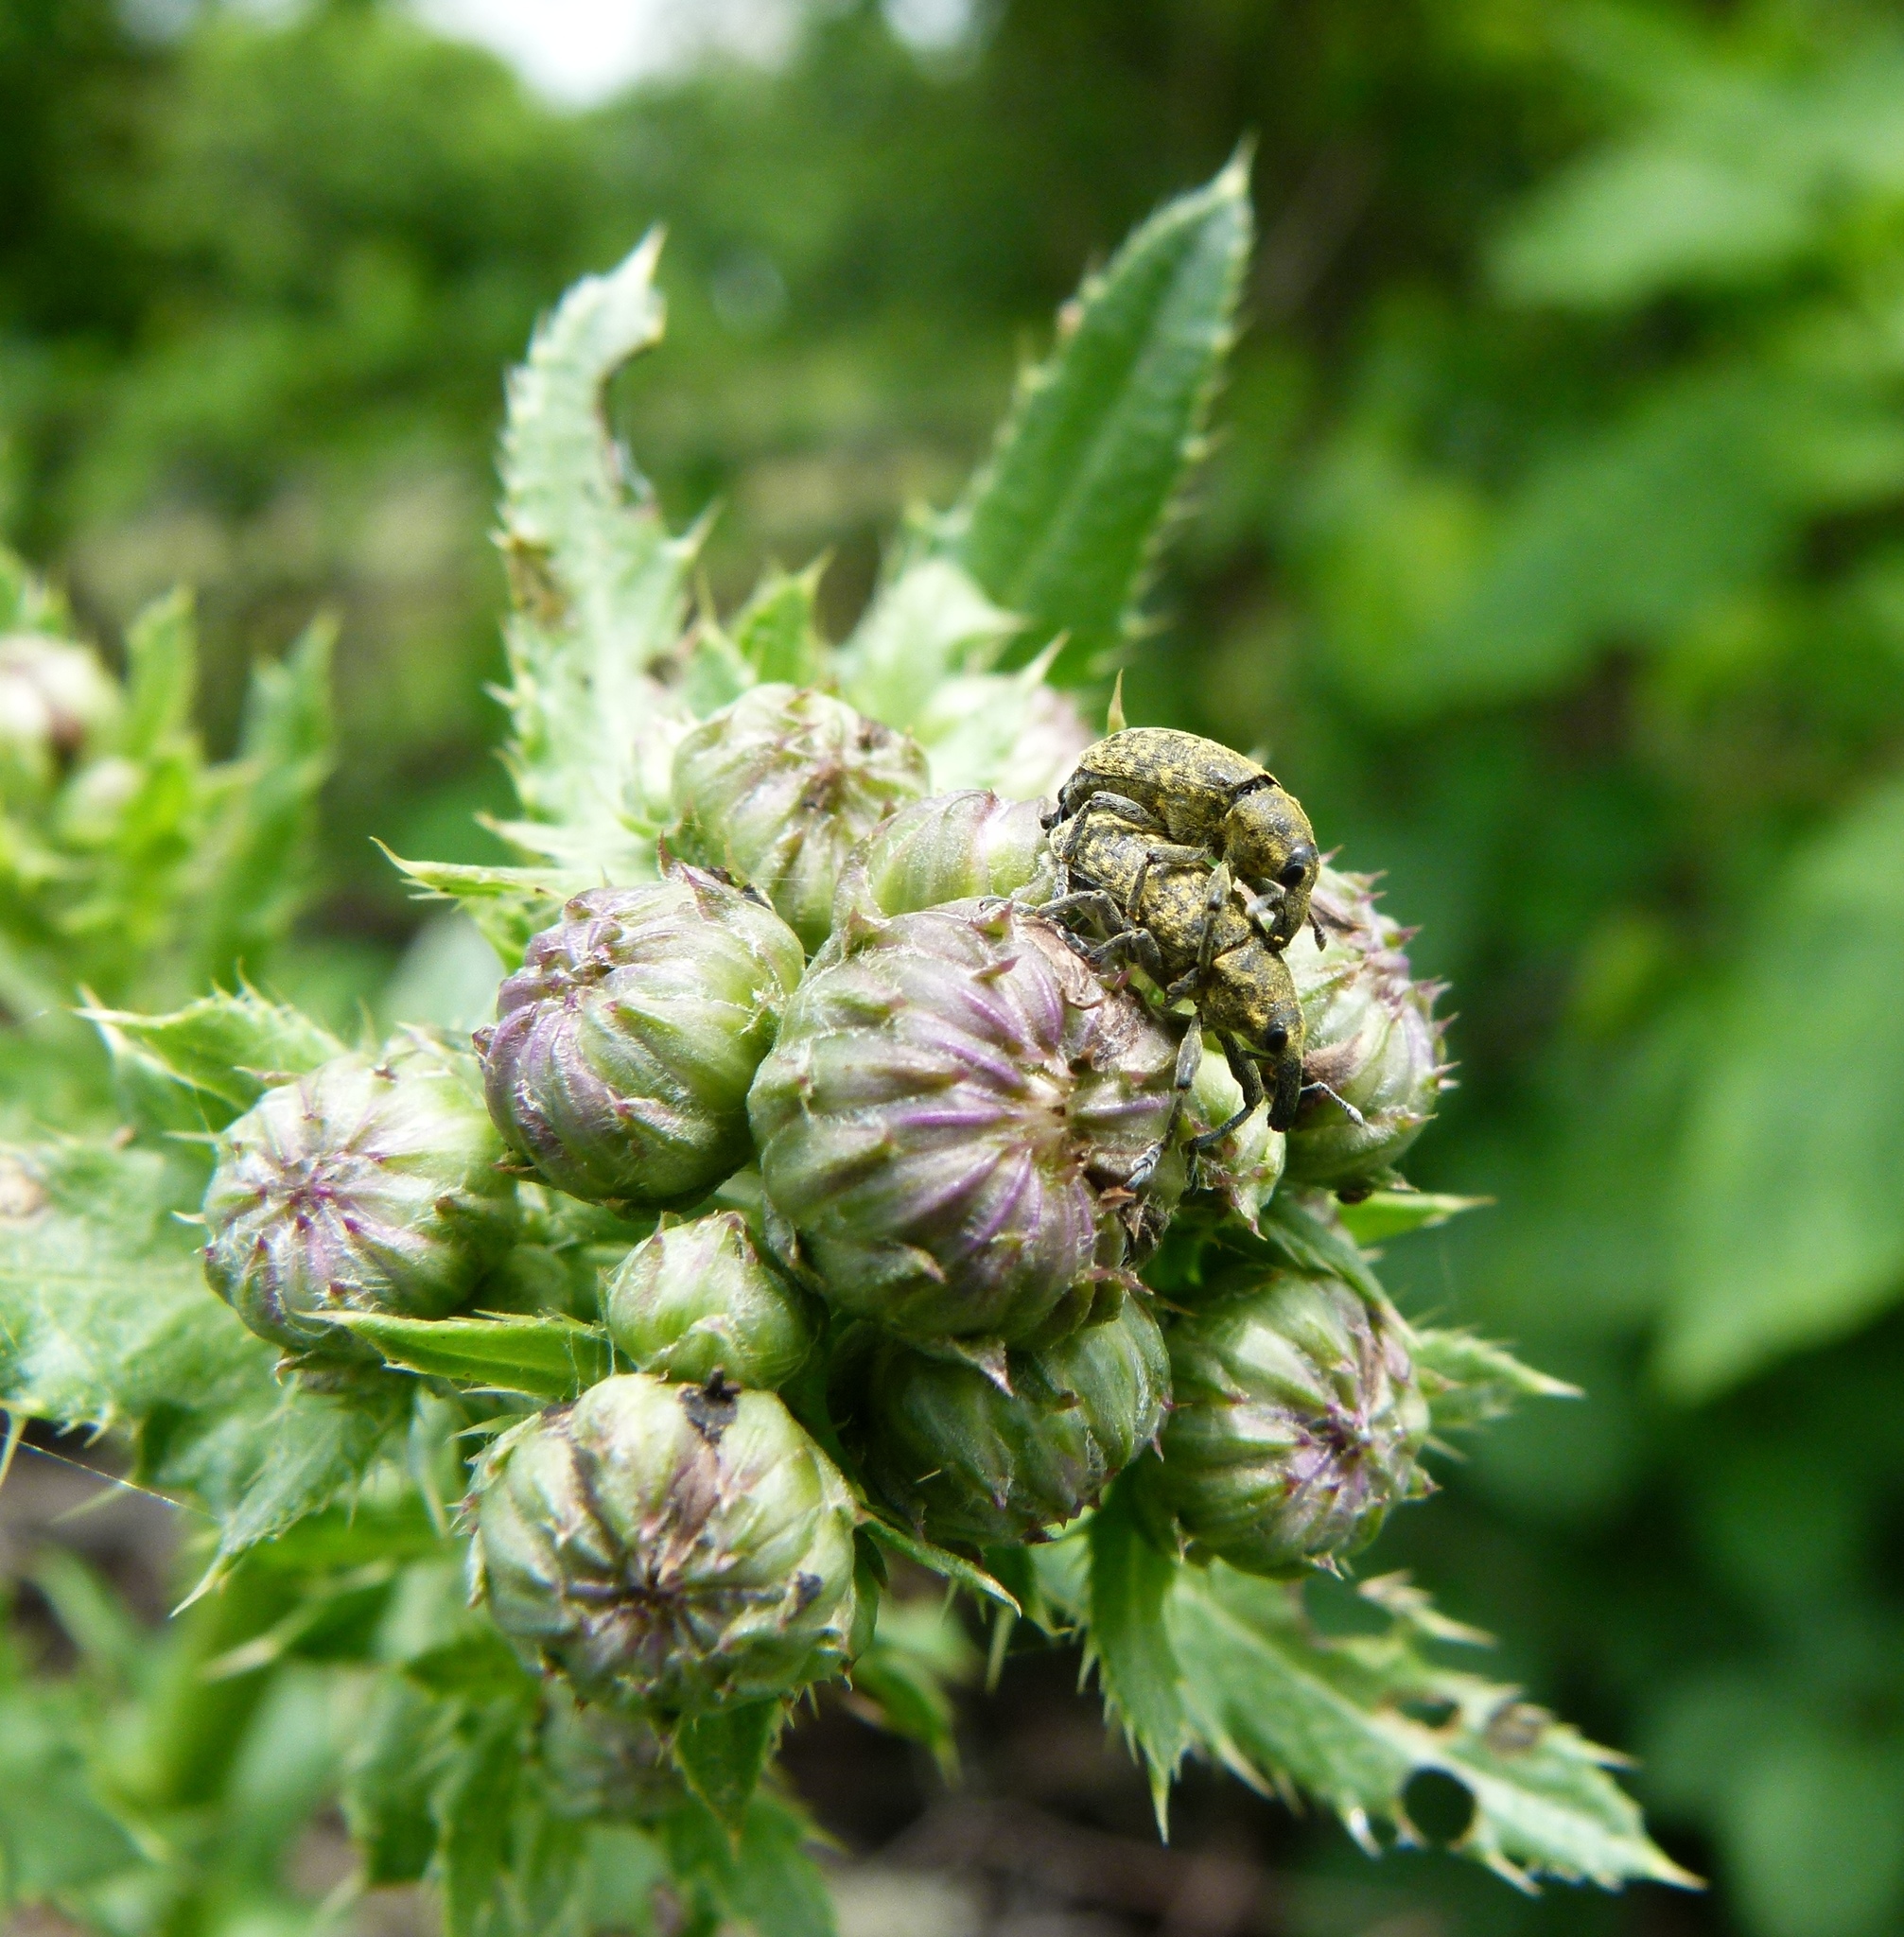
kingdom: Animalia
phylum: Arthropoda
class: Insecta
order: Coleoptera
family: Curculionidae
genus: Larinus
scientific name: Larinus carlinae
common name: Weevil
